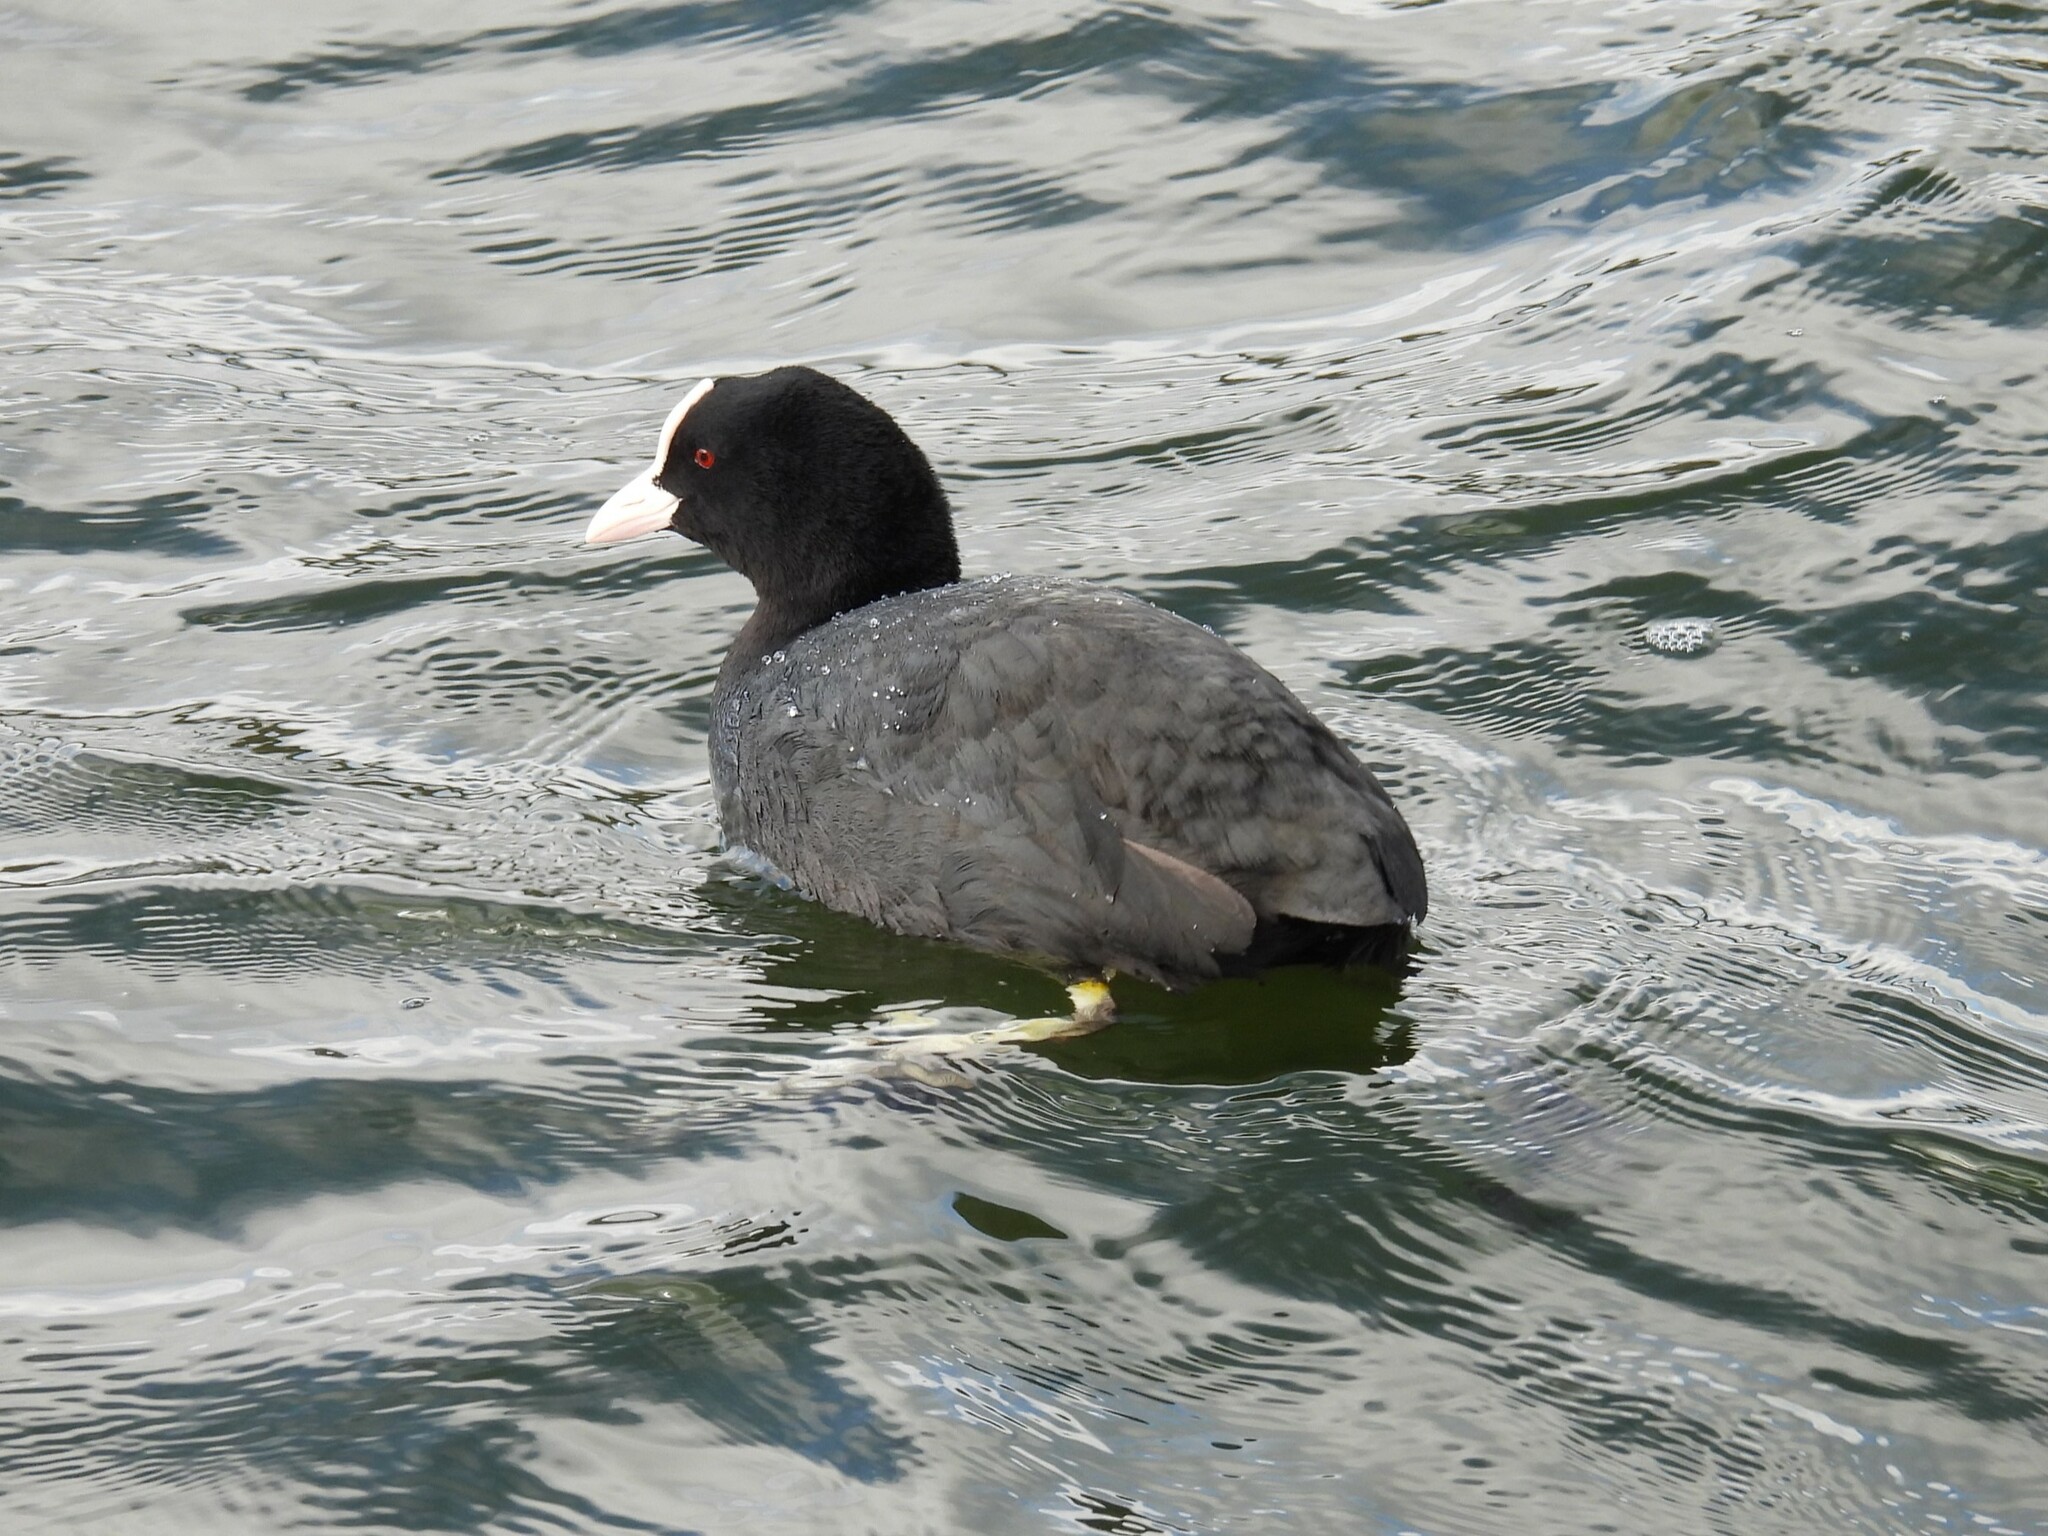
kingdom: Animalia
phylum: Chordata
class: Aves
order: Gruiformes
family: Rallidae
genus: Fulica
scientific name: Fulica atra
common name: Eurasian coot
